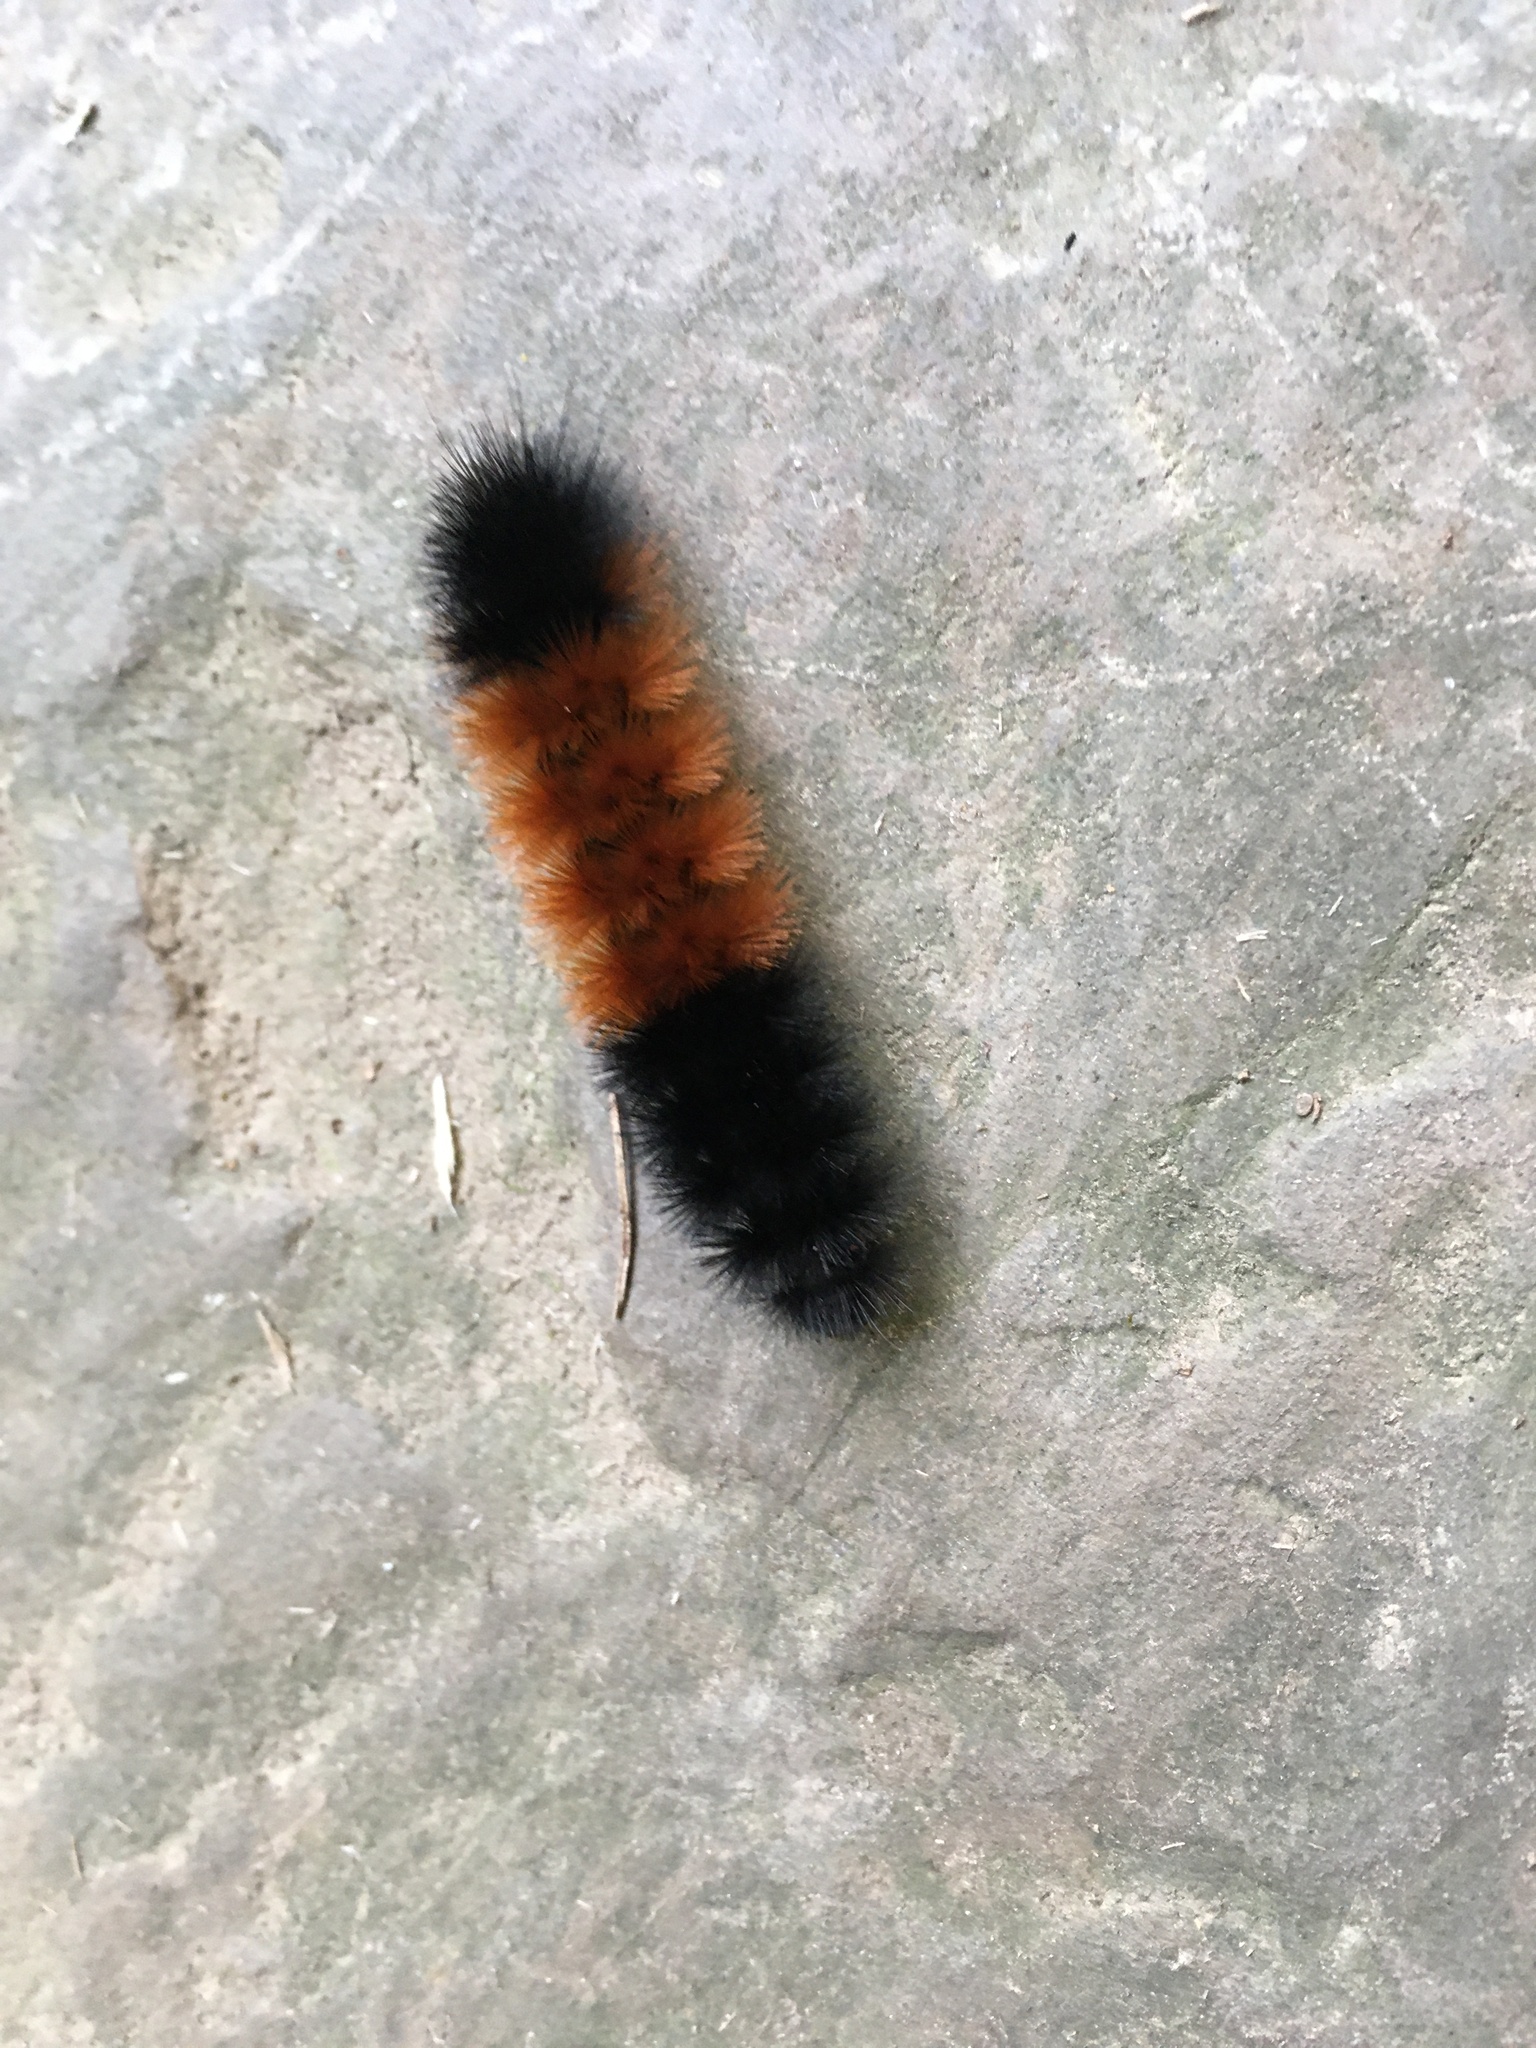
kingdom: Animalia
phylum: Arthropoda
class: Insecta
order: Lepidoptera
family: Erebidae
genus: Pyrrharctia
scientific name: Pyrrharctia isabella
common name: Isabella tiger moth
